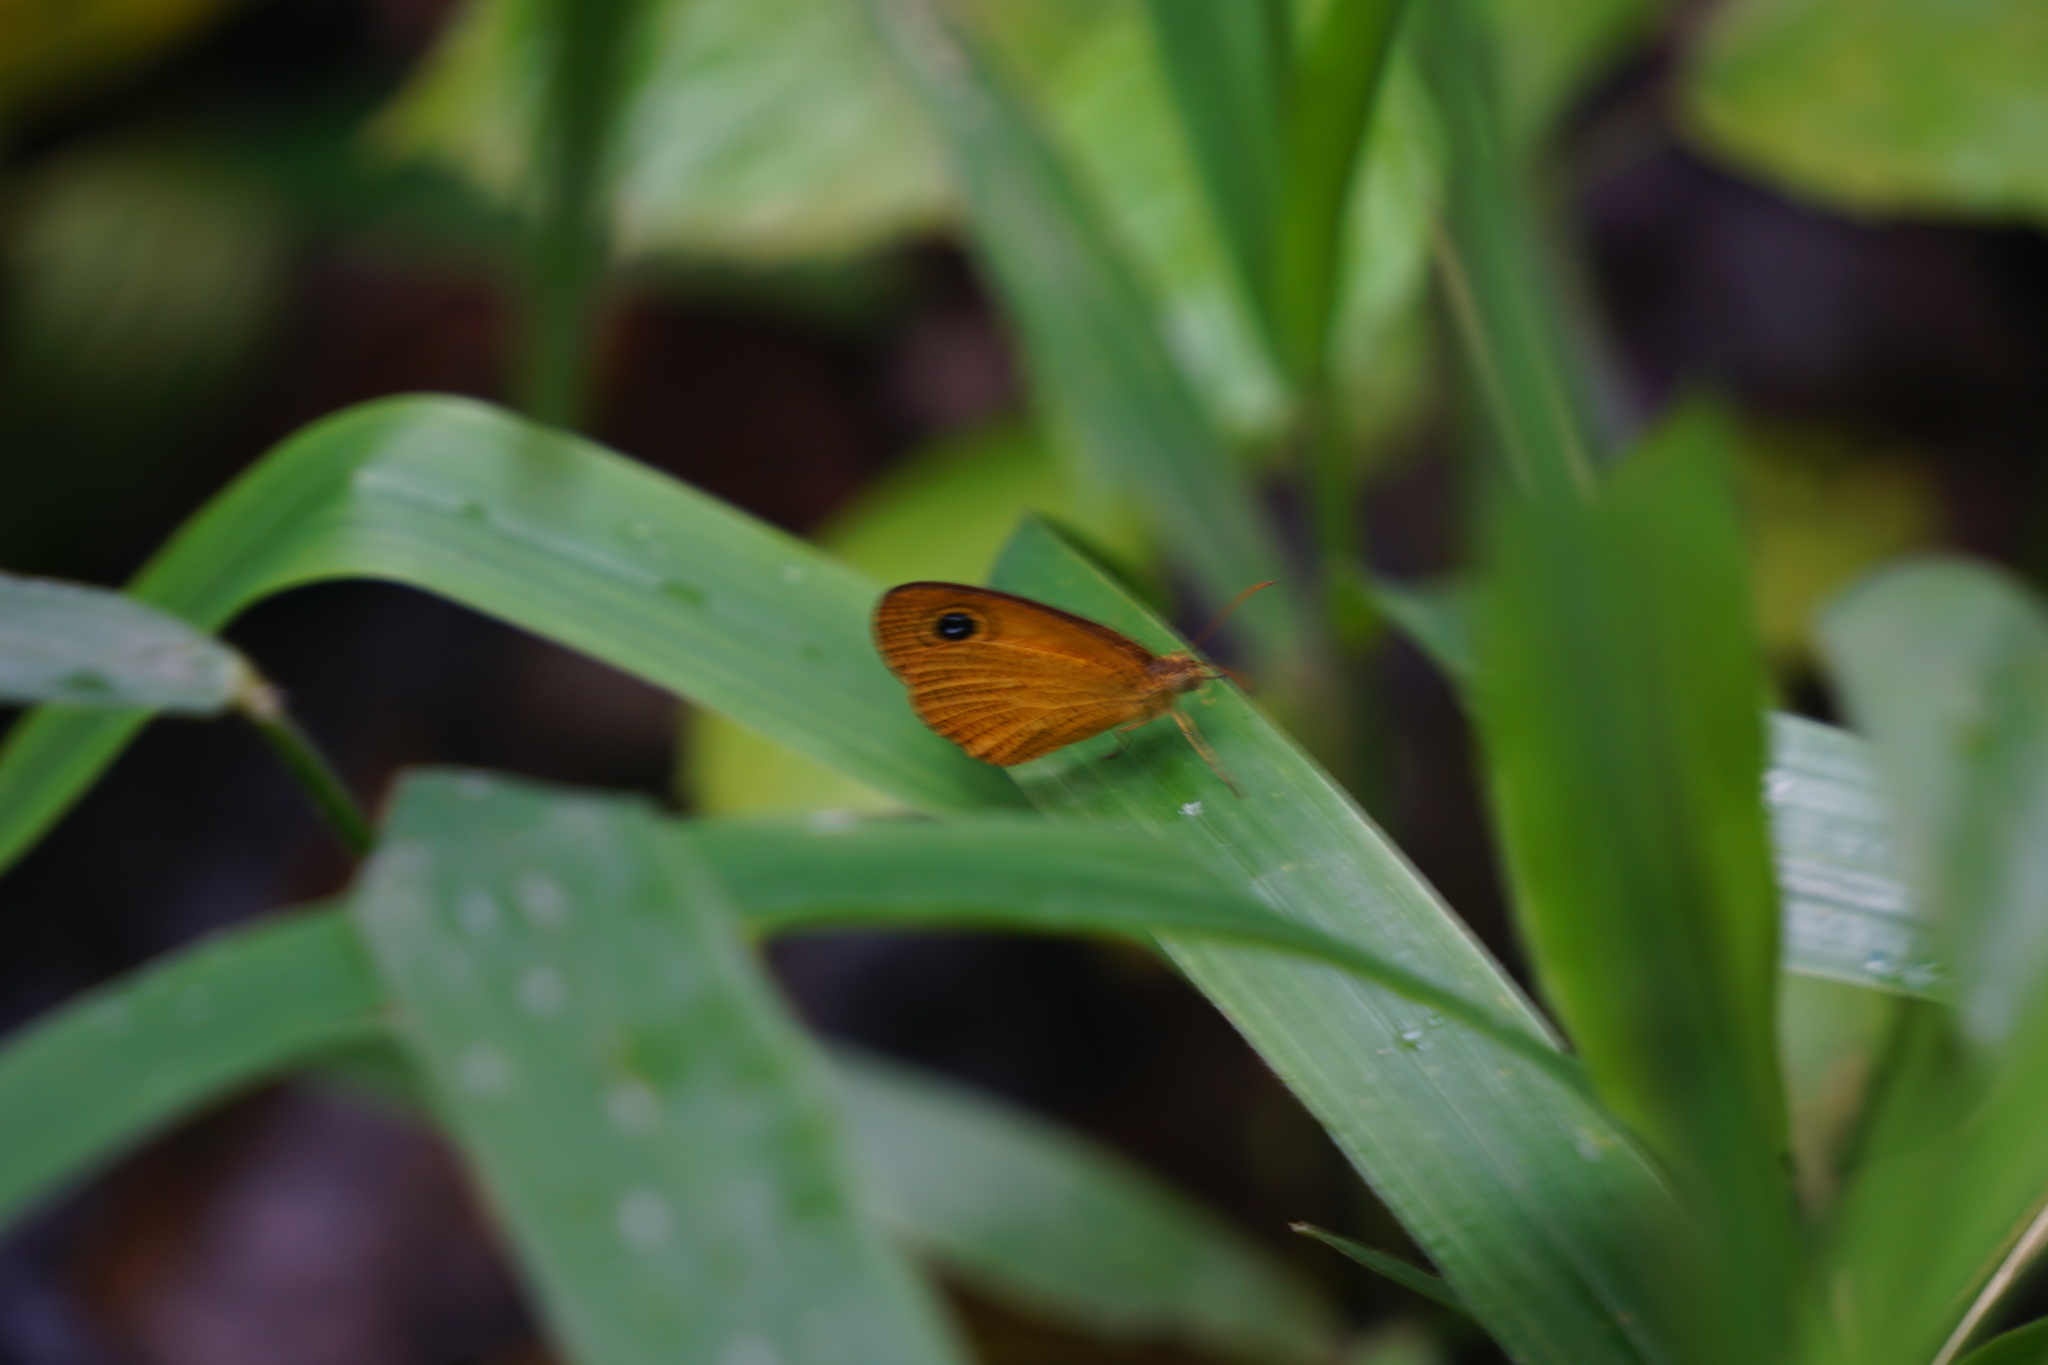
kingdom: Animalia
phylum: Arthropoda
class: Insecta
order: Lepidoptera
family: Nymphalidae
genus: Ypthima
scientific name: Ypthima sesara
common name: Common fijian ringlet
